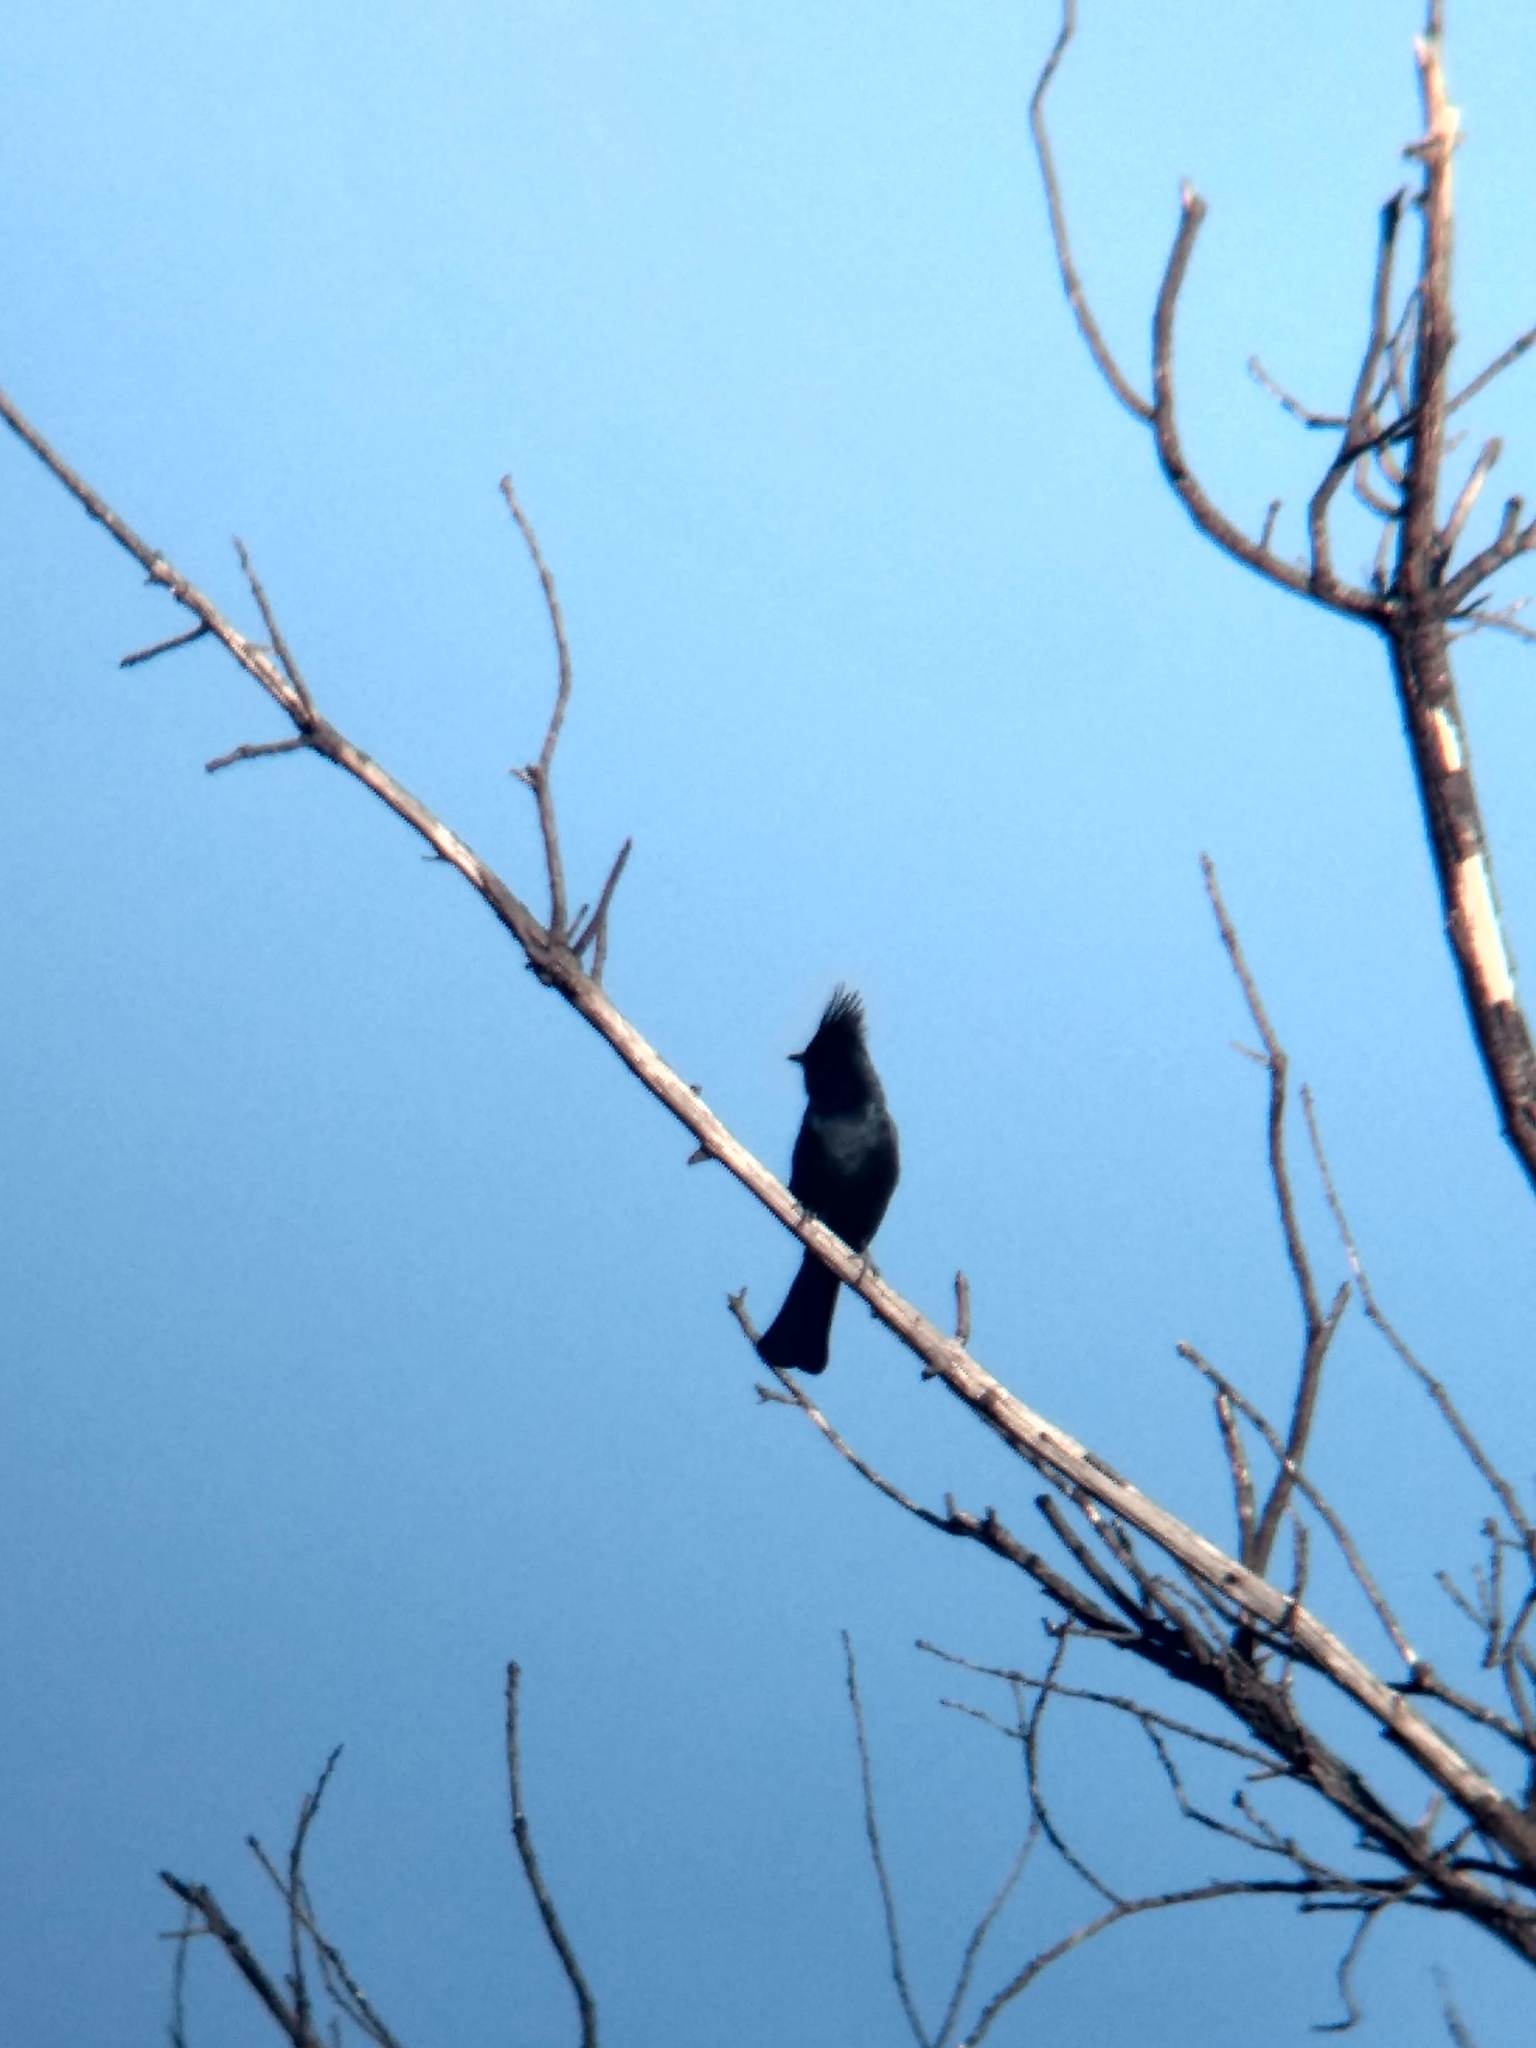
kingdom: Animalia
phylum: Chordata
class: Aves
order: Passeriformes
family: Ptilogonatidae
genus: Phainopepla
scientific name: Phainopepla nitens
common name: Phainopepla
